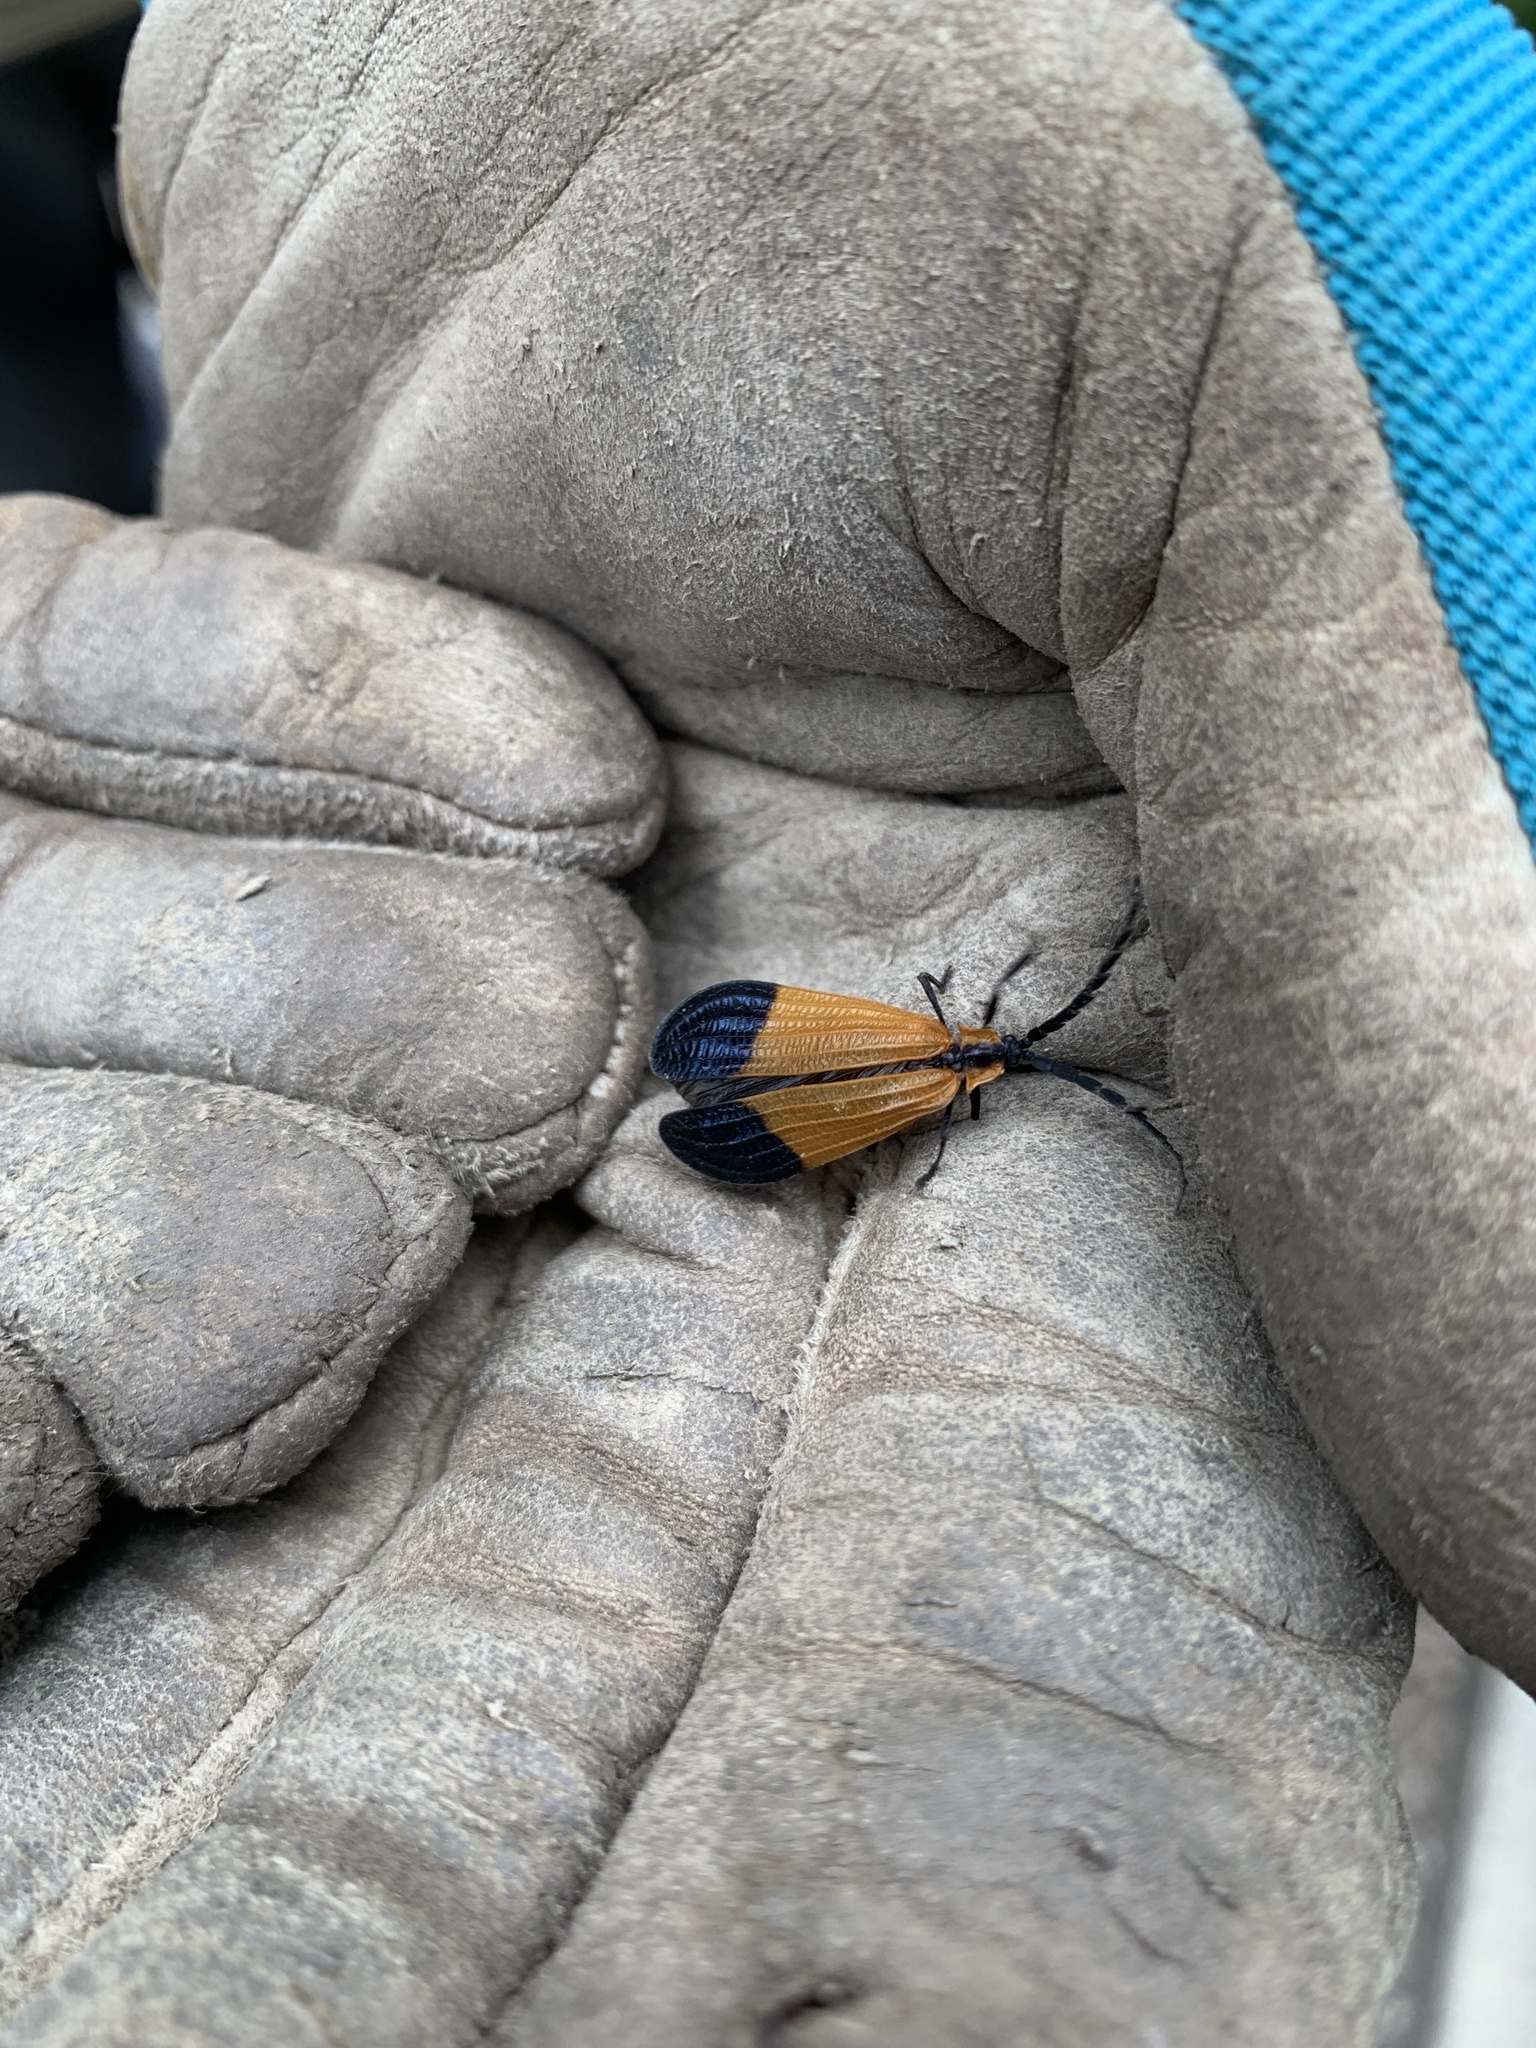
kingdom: Animalia
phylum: Arthropoda
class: Insecta
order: Coleoptera
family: Lycidae
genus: Calopteron
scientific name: Calopteron terminale
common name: End band net-winged beetle
